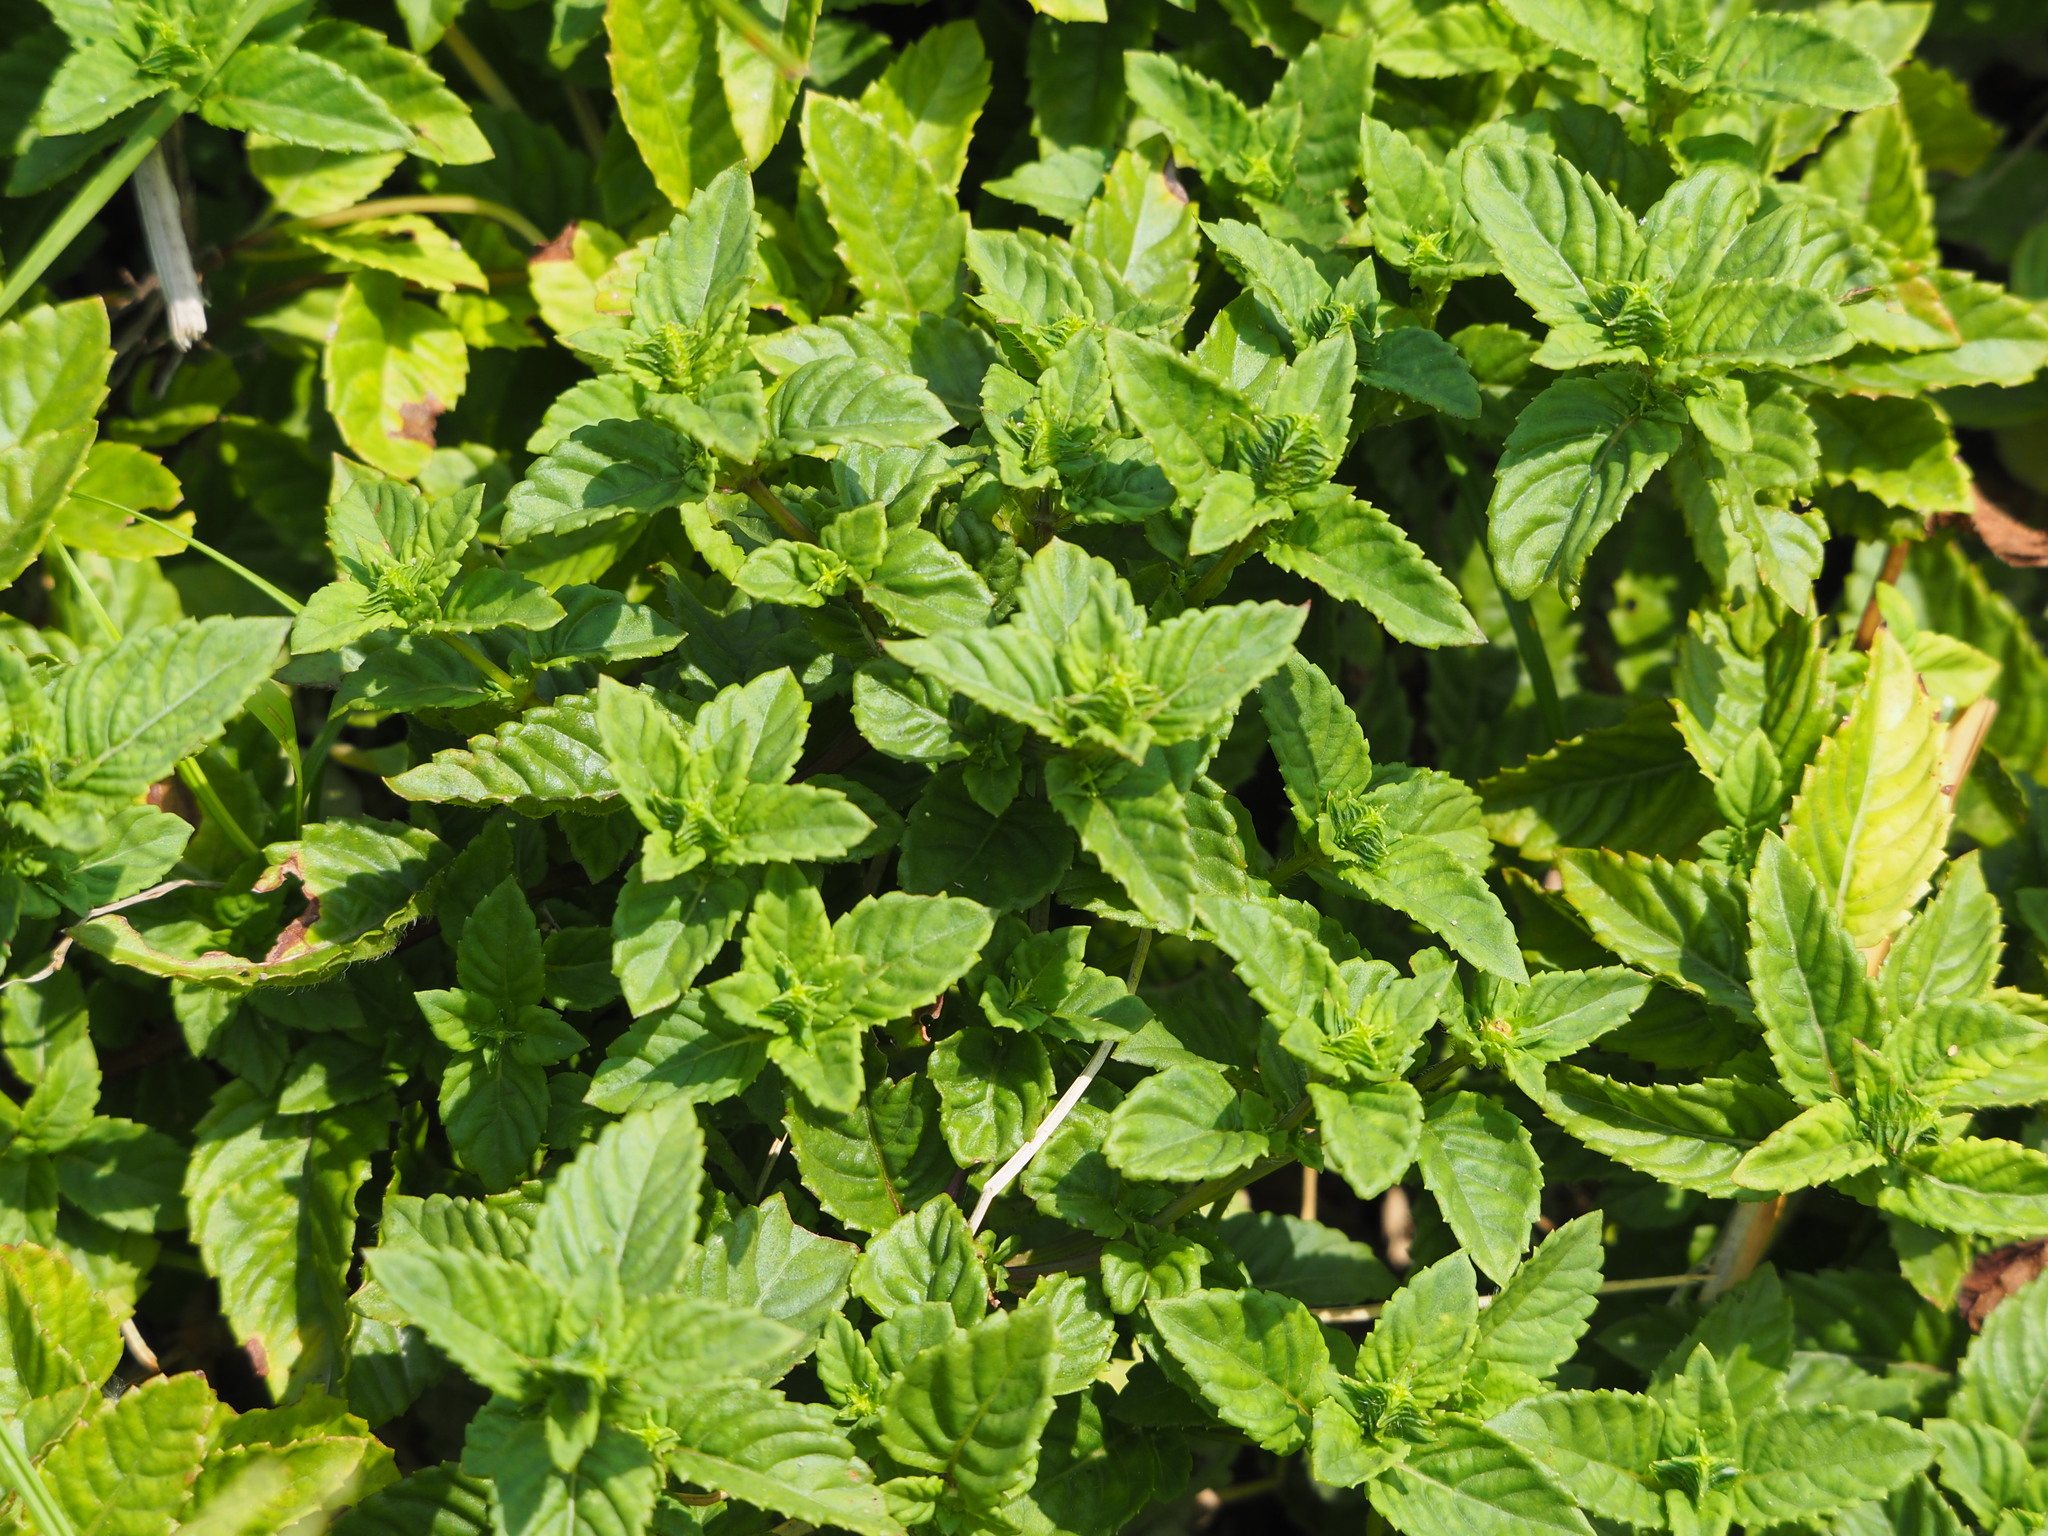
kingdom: Plantae
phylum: Tracheophyta
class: Magnoliopsida
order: Lamiales
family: Lamiaceae
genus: Platostoma
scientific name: Platostoma palustre
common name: Black cincau
